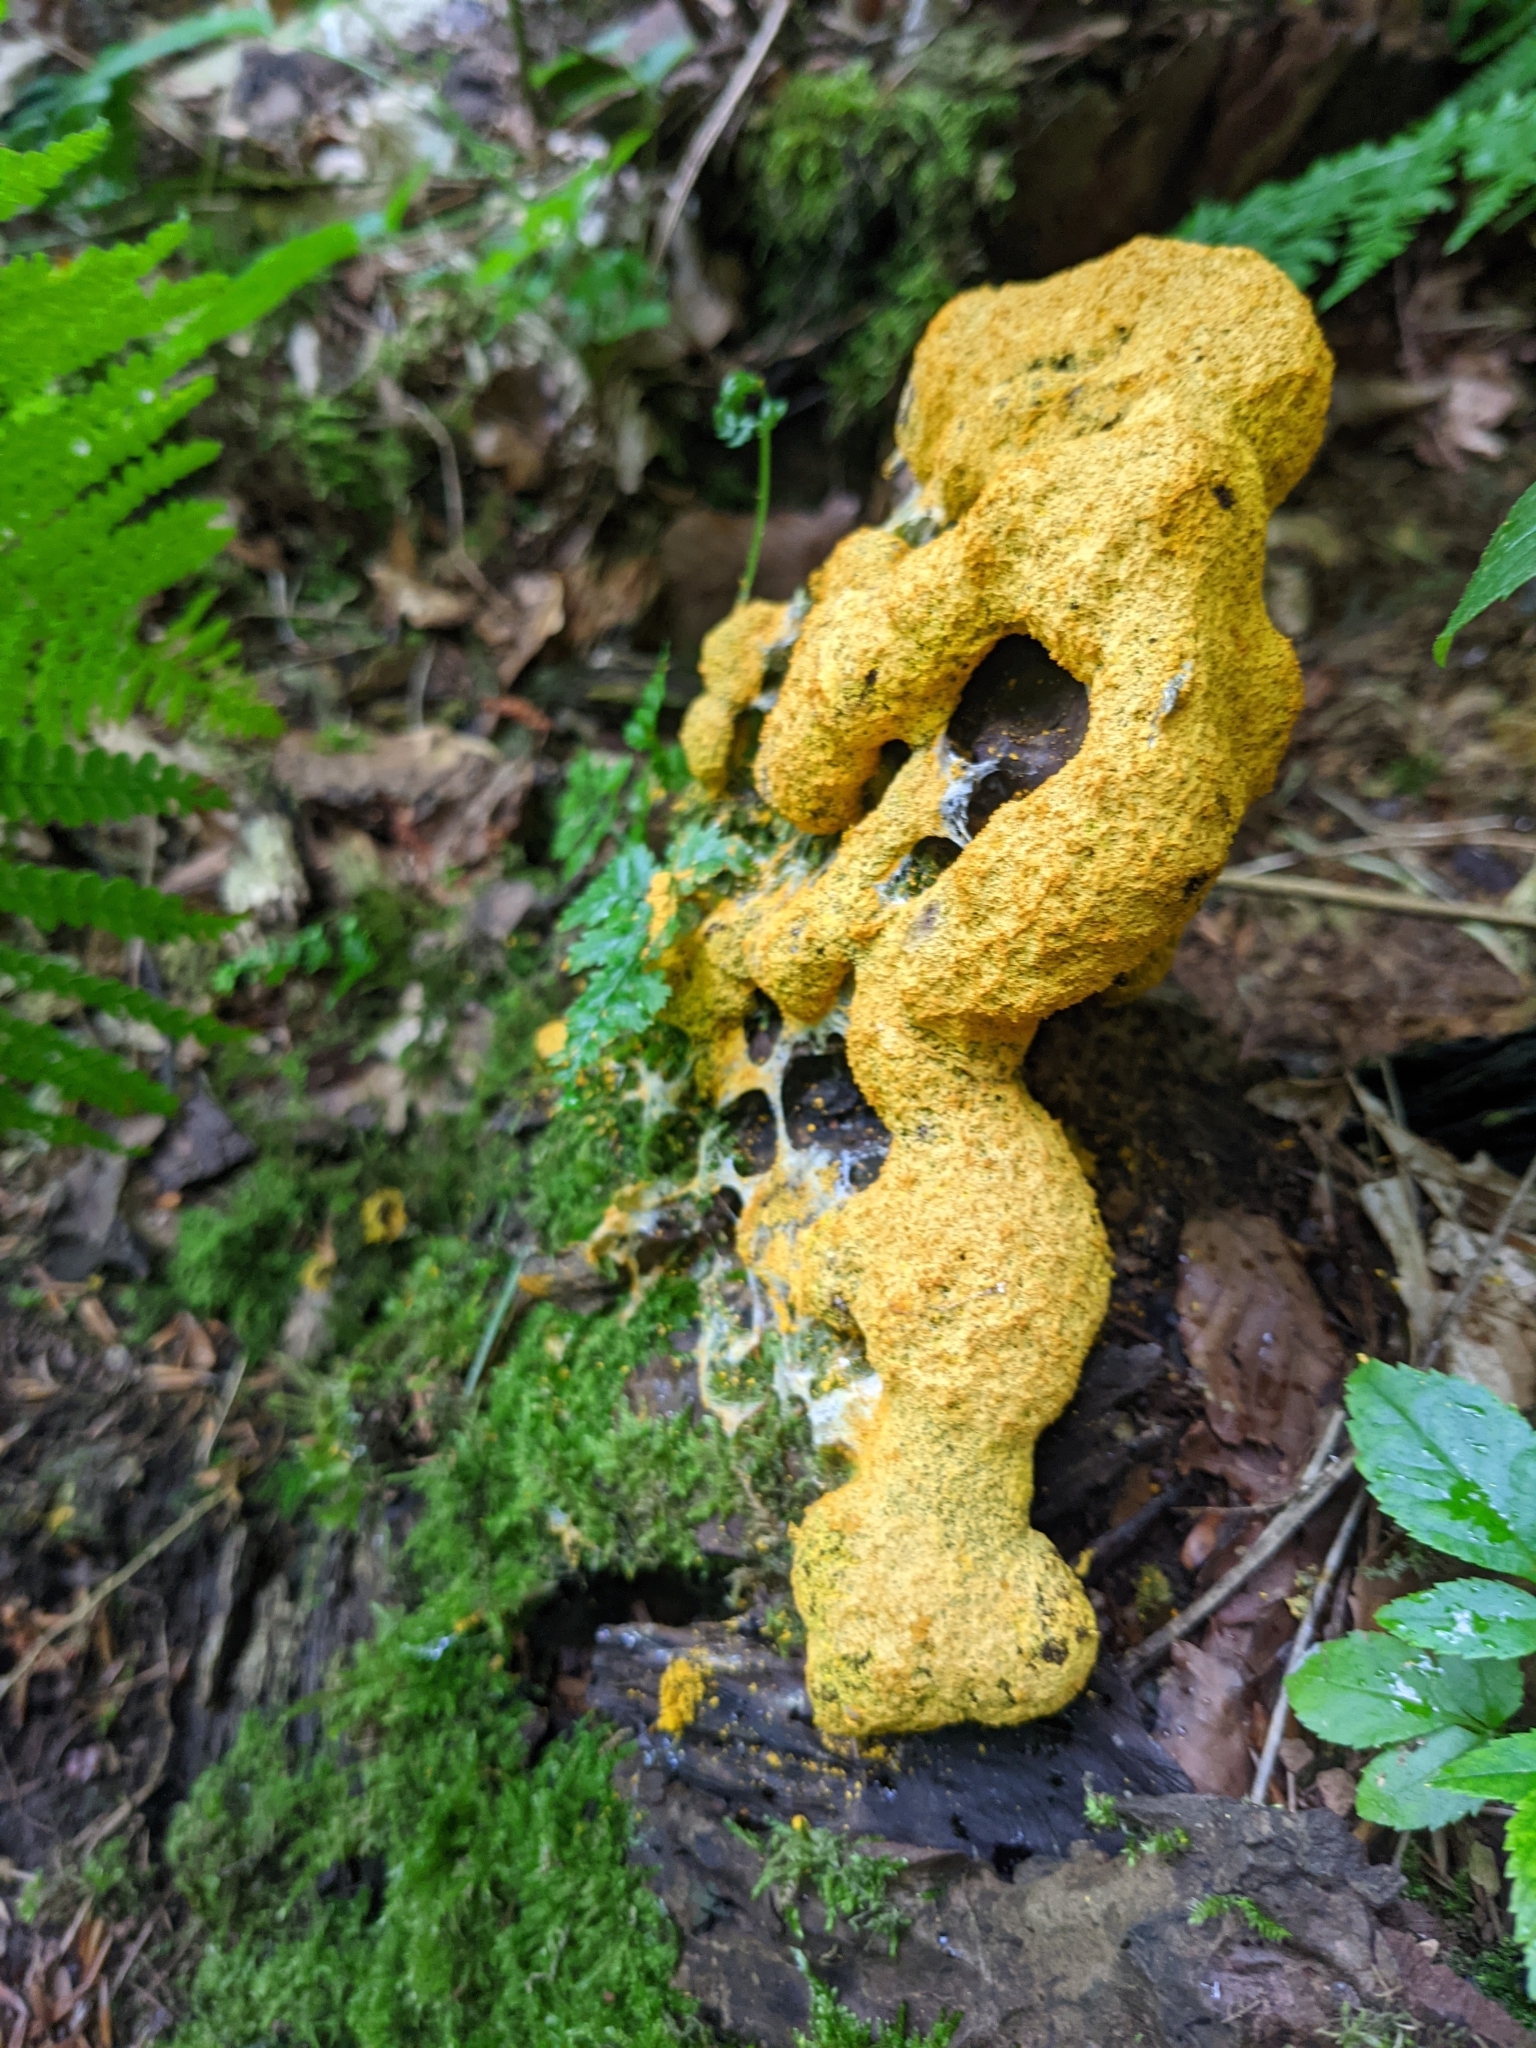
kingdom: Protozoa
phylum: Mycetozoa
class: Myxomycetes
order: Physarales
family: Physaraceae
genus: Fuligo
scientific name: Fuligo septica
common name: Dog vomit slime mold
